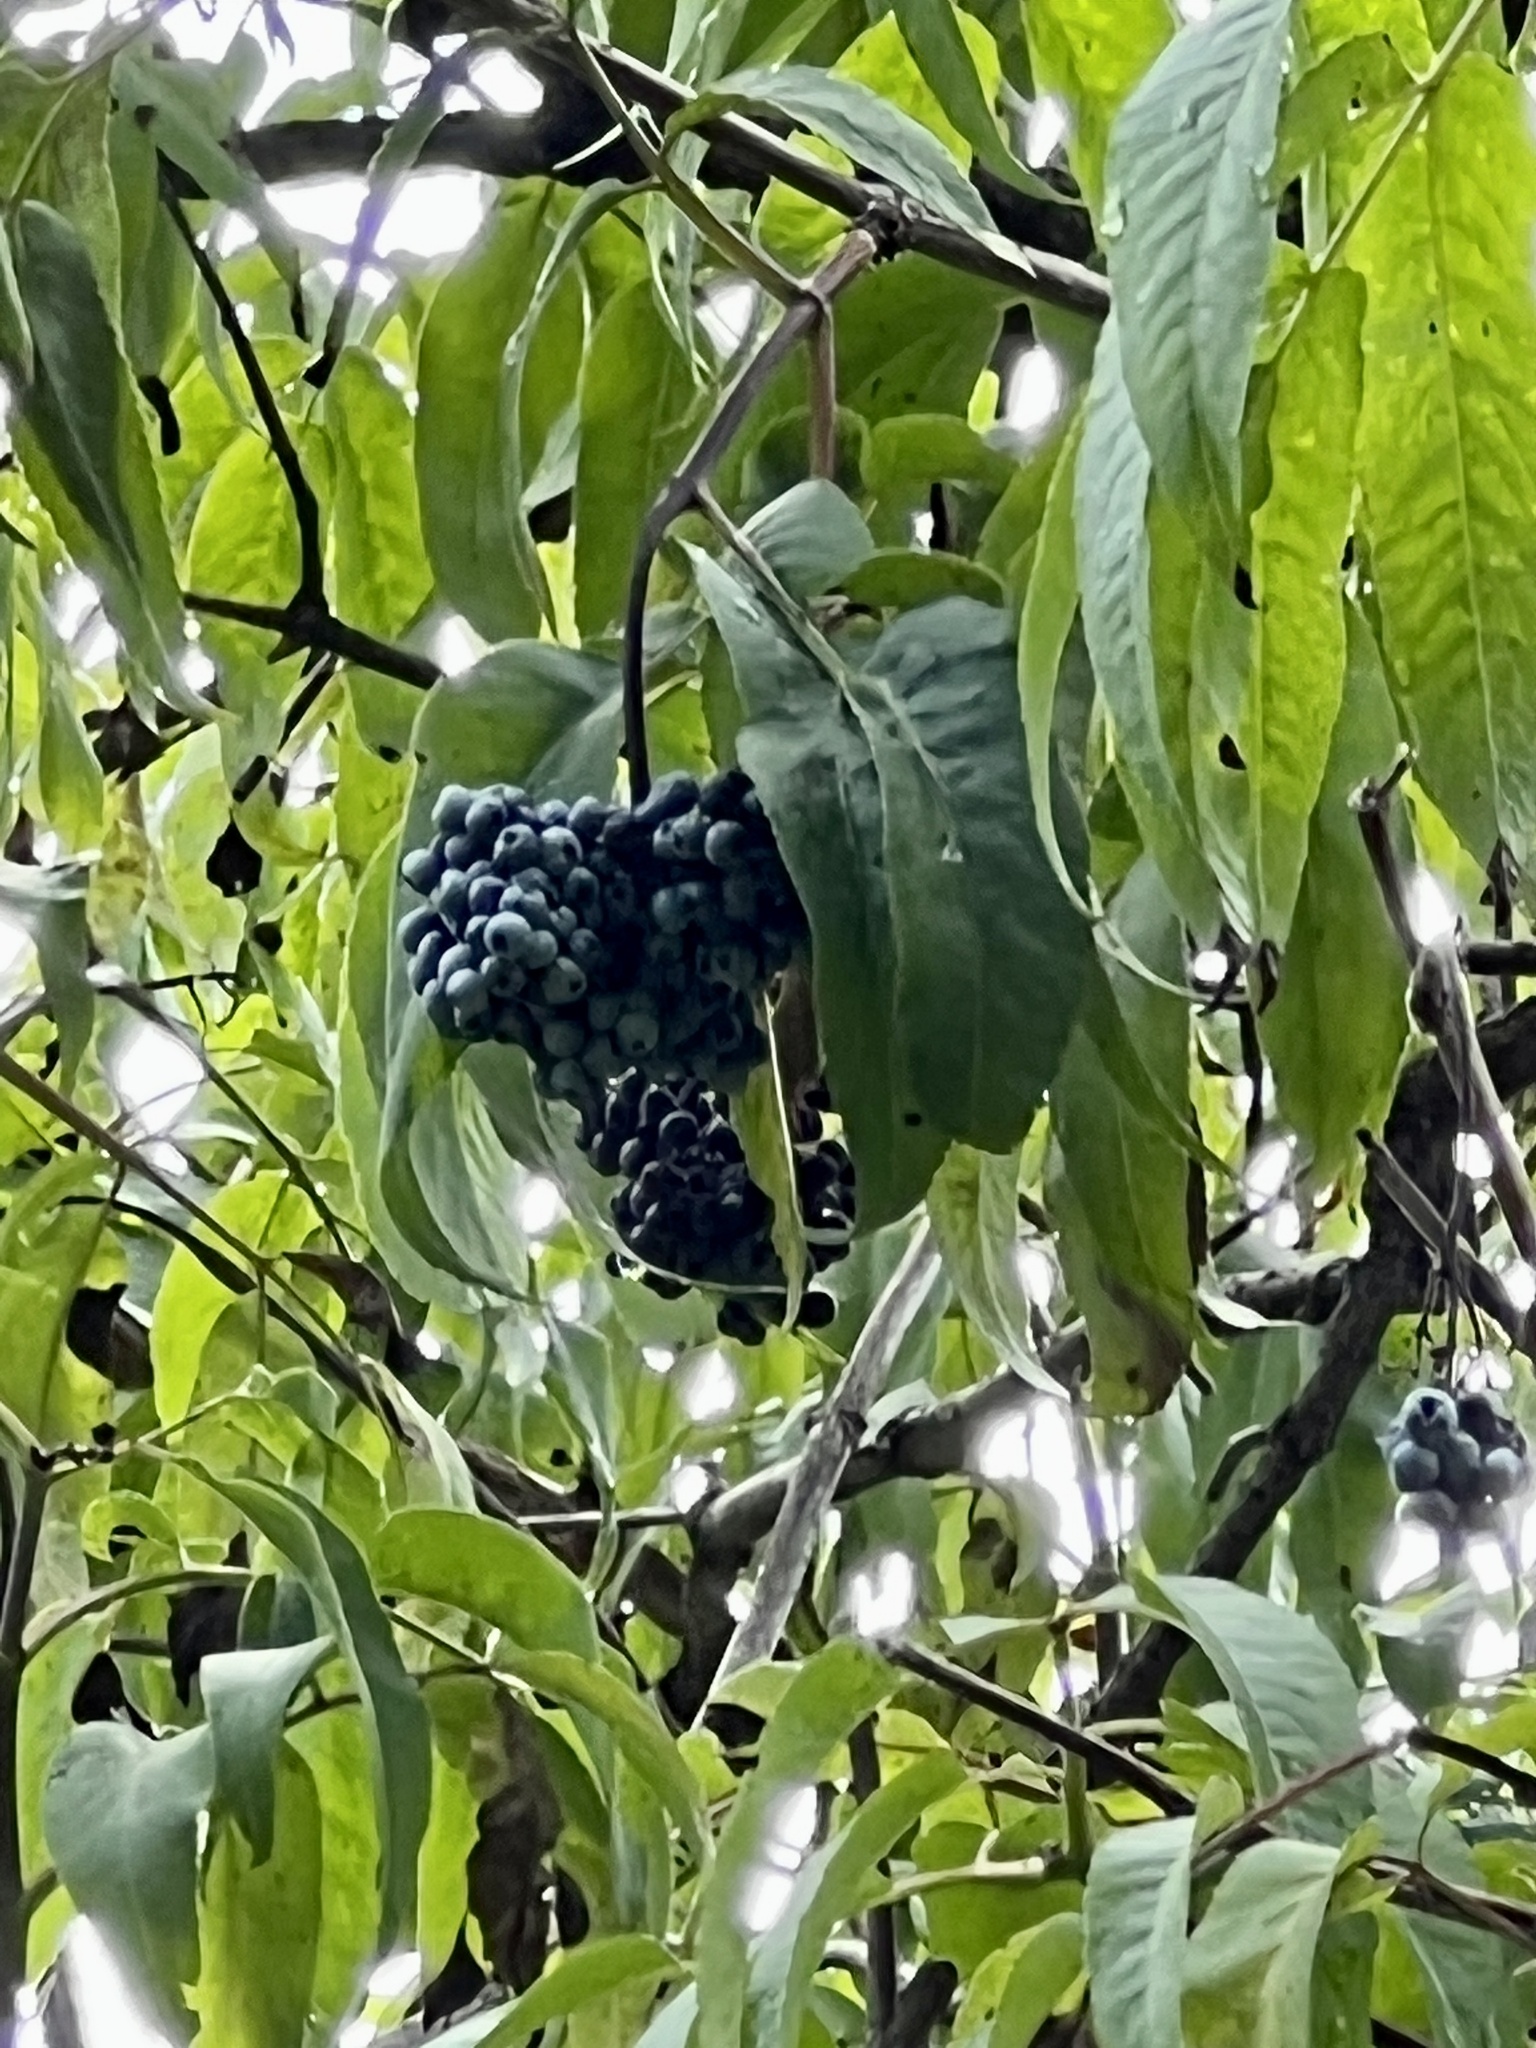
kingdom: Plantae
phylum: Tracheophyta
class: Magnoliopsida
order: Dipsacales
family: Viburnaceae
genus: Sambucus
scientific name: Sambucus cerulea
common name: Blue elder
